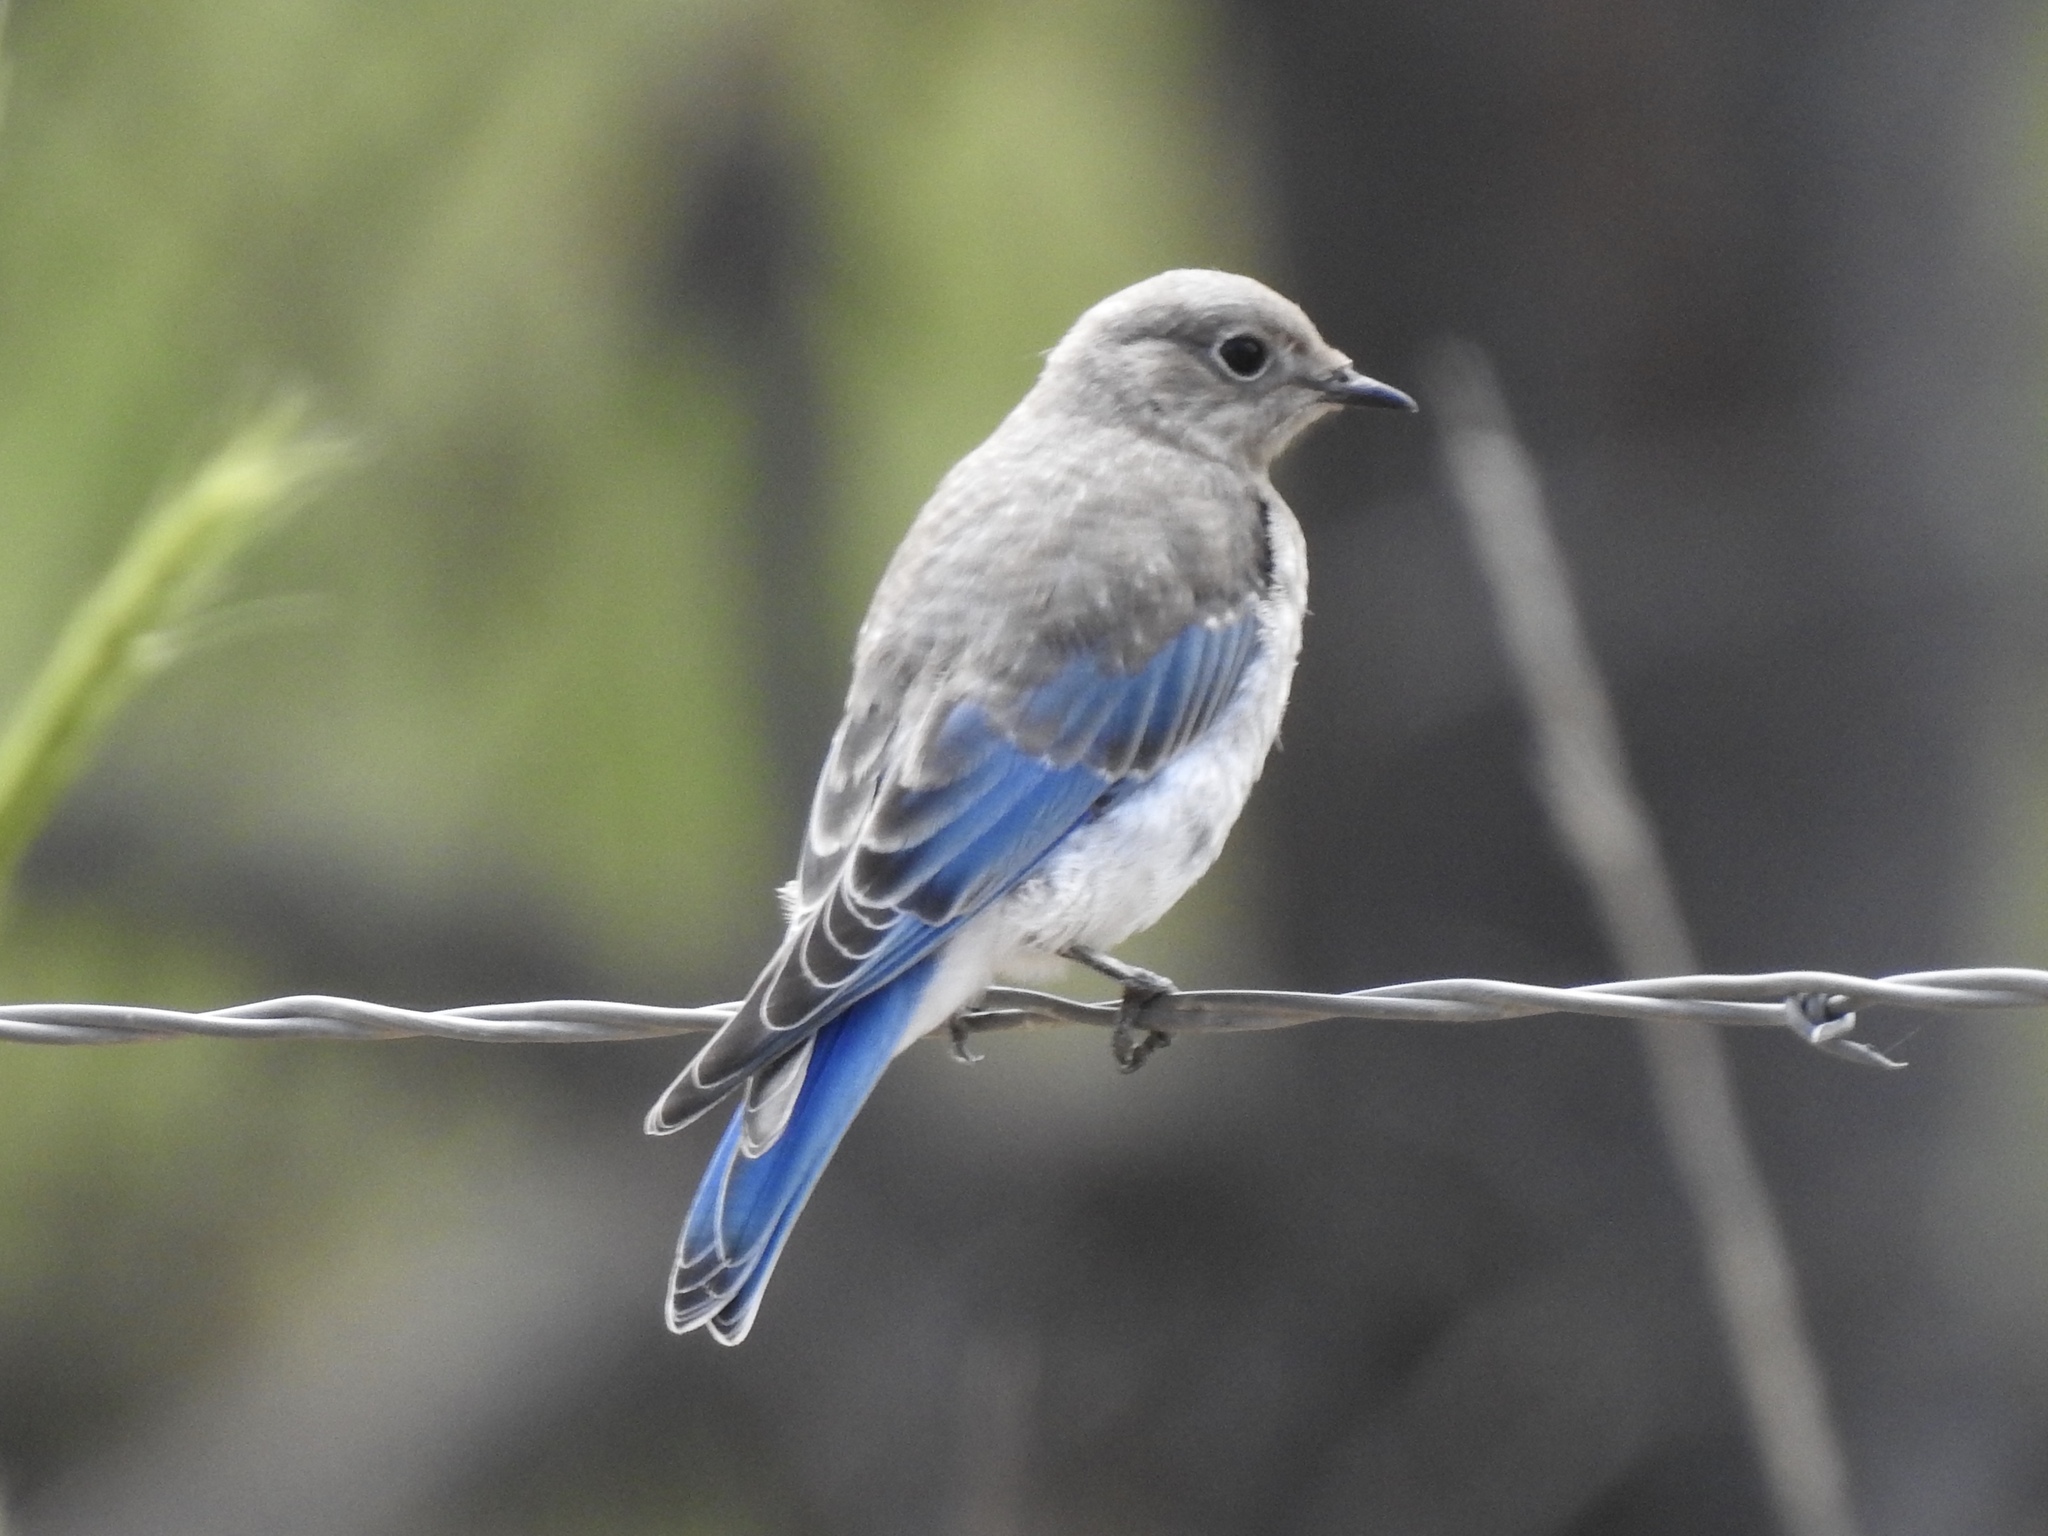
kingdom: Animalia
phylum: Chordata
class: Aves
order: Passeriformes
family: Turdidae
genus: Sialia
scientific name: Sialia currucoides
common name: Mountain bluebird
